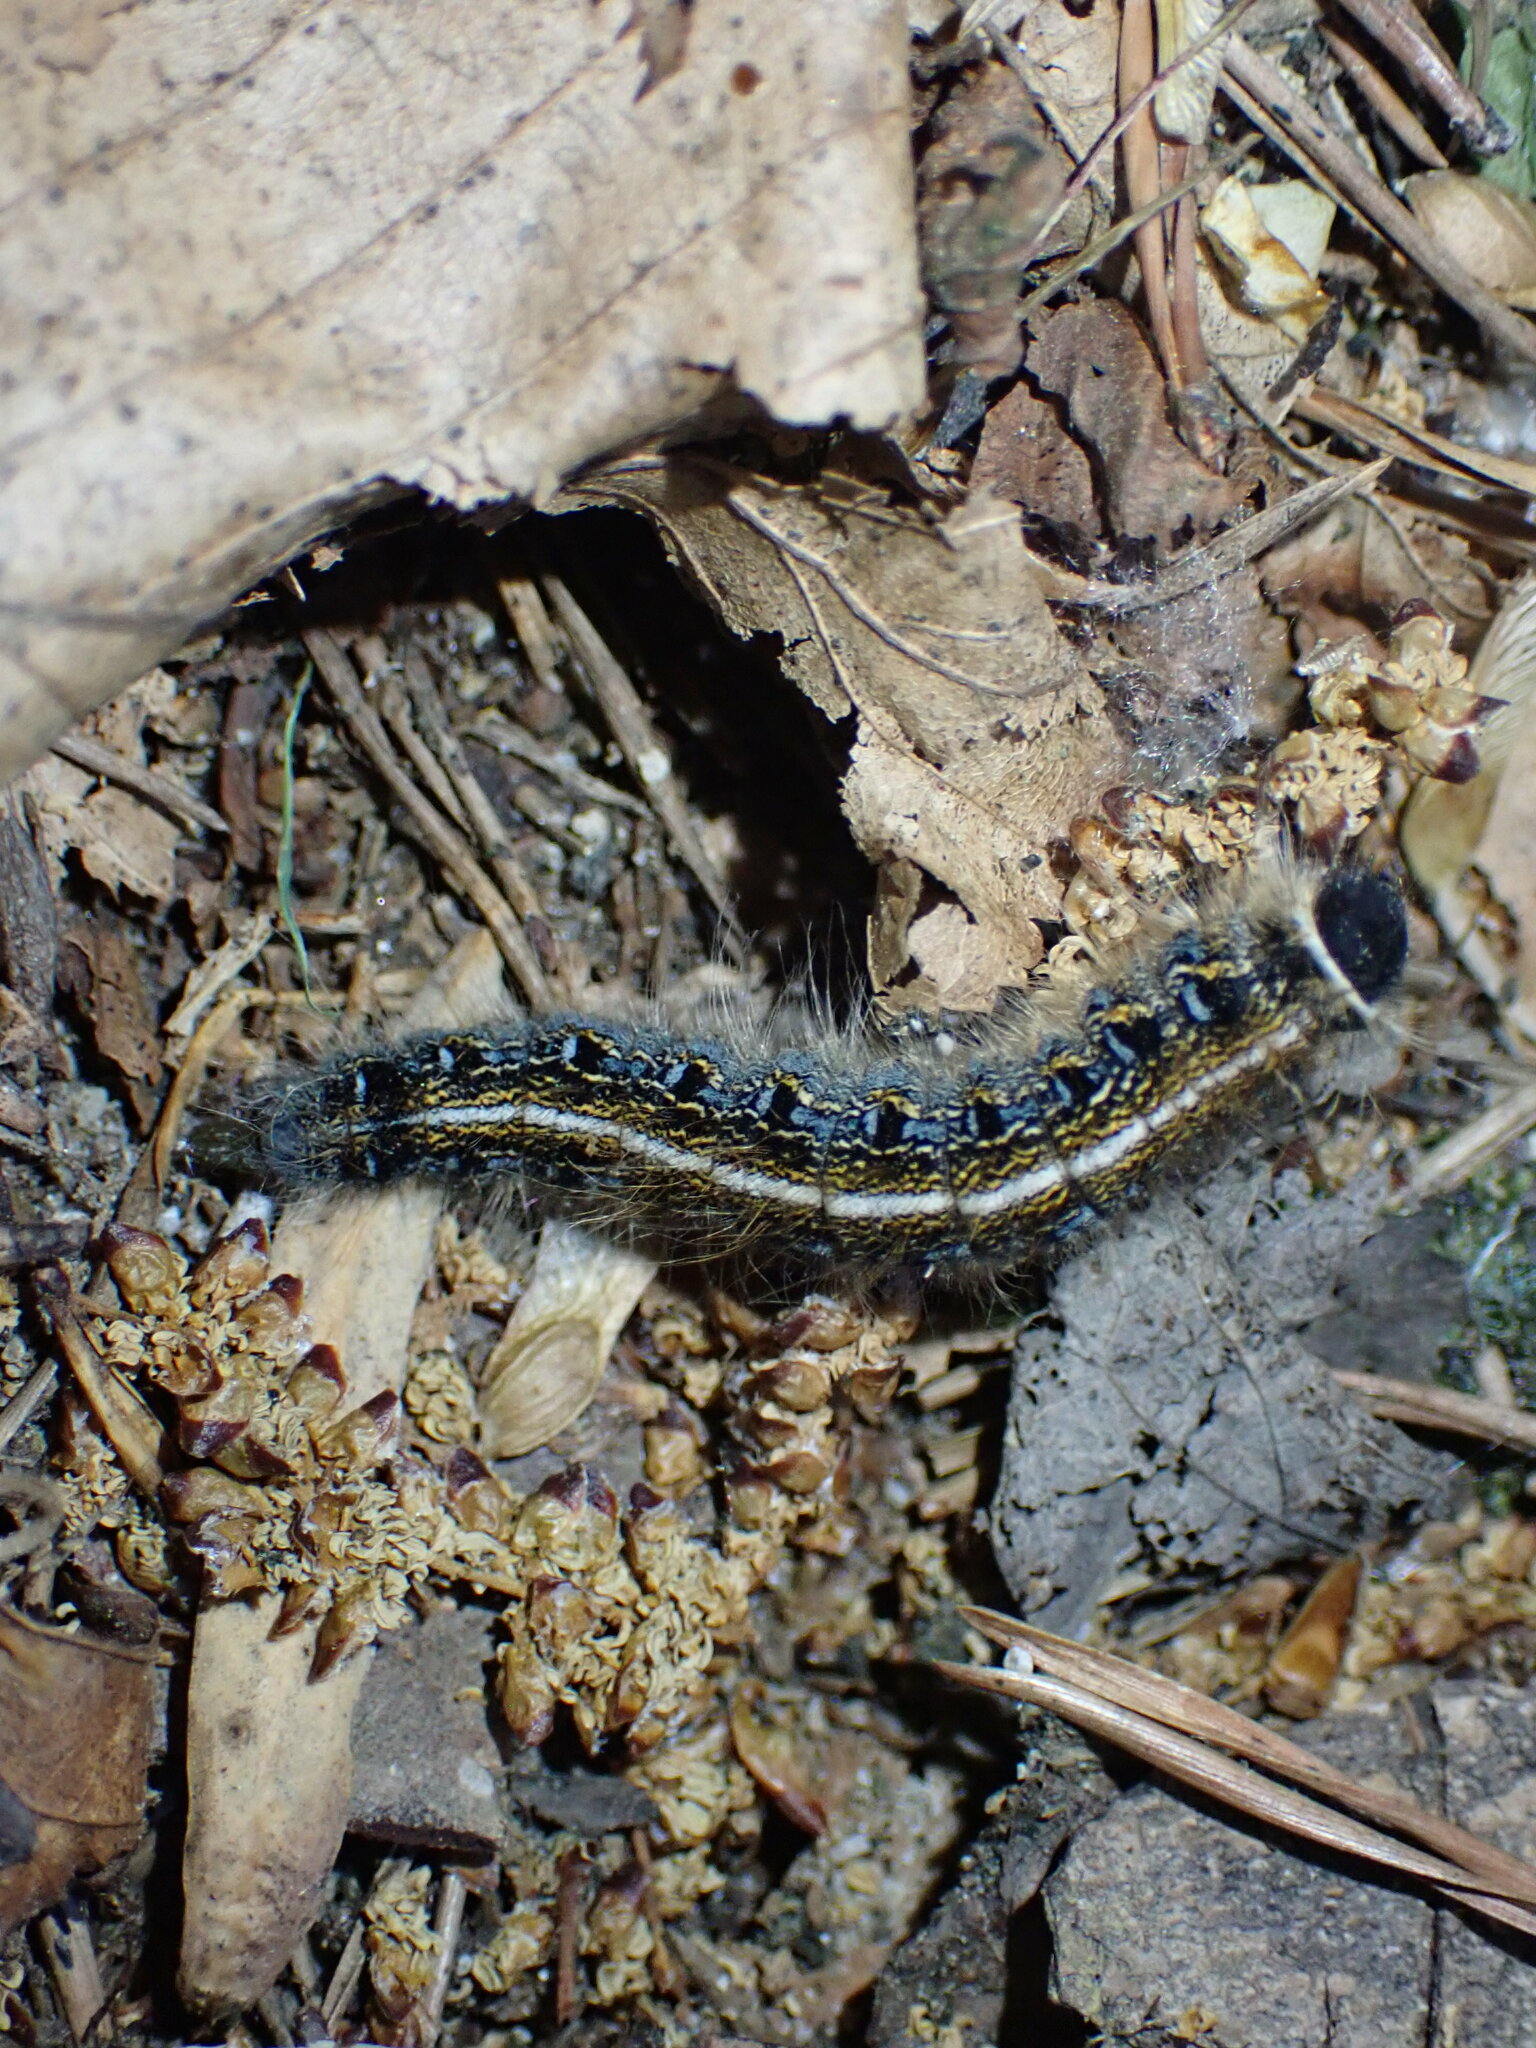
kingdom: Animalia
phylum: Arthropoda
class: Insecta
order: Lepidoptera
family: Lasiocampidae
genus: Malacosoma
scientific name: Malacosoma americana
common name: Eastern tent caterpillar moth
